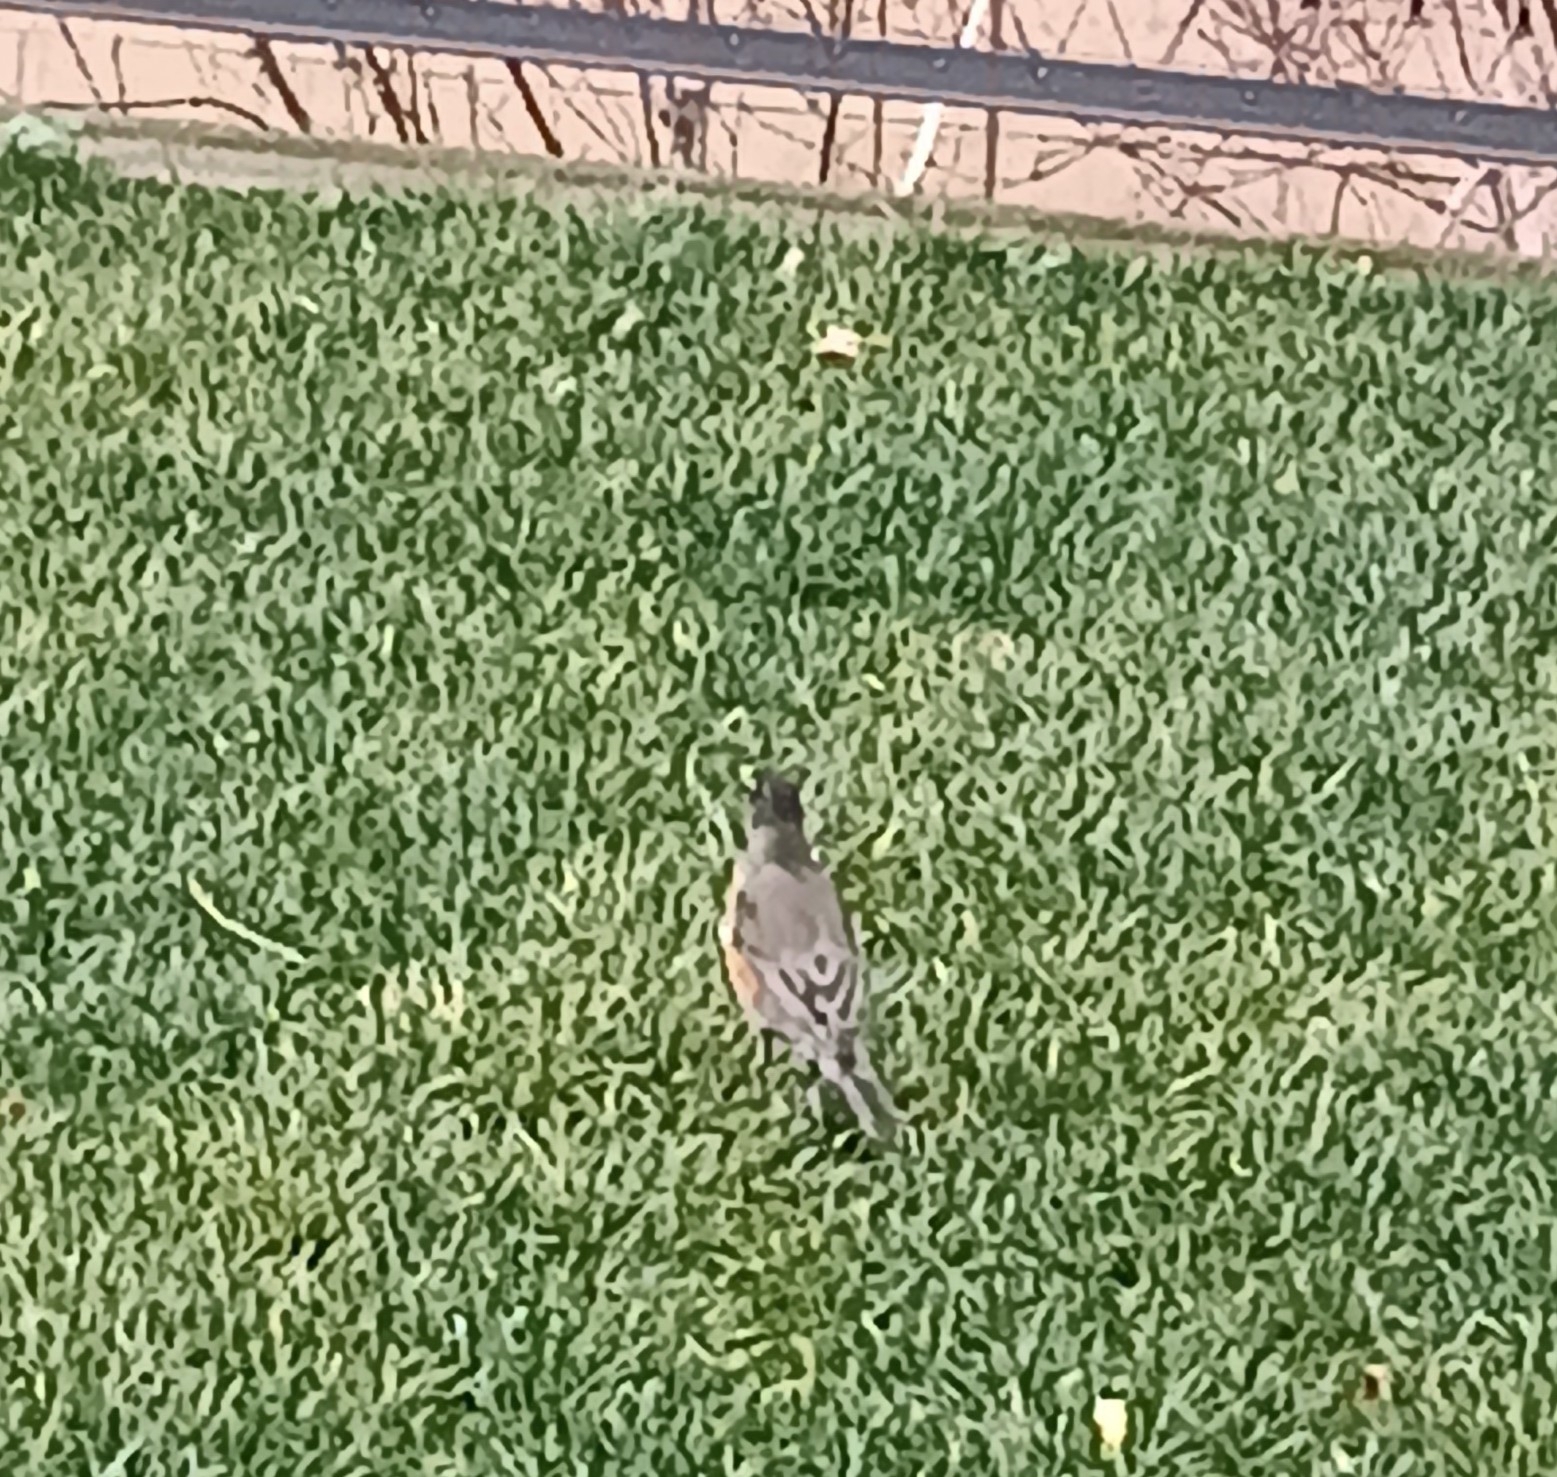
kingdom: Animalia
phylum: Chordata
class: Aves
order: Passeriformes
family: Turdidae
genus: Turdus
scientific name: Turdus migratorius
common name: American robin
